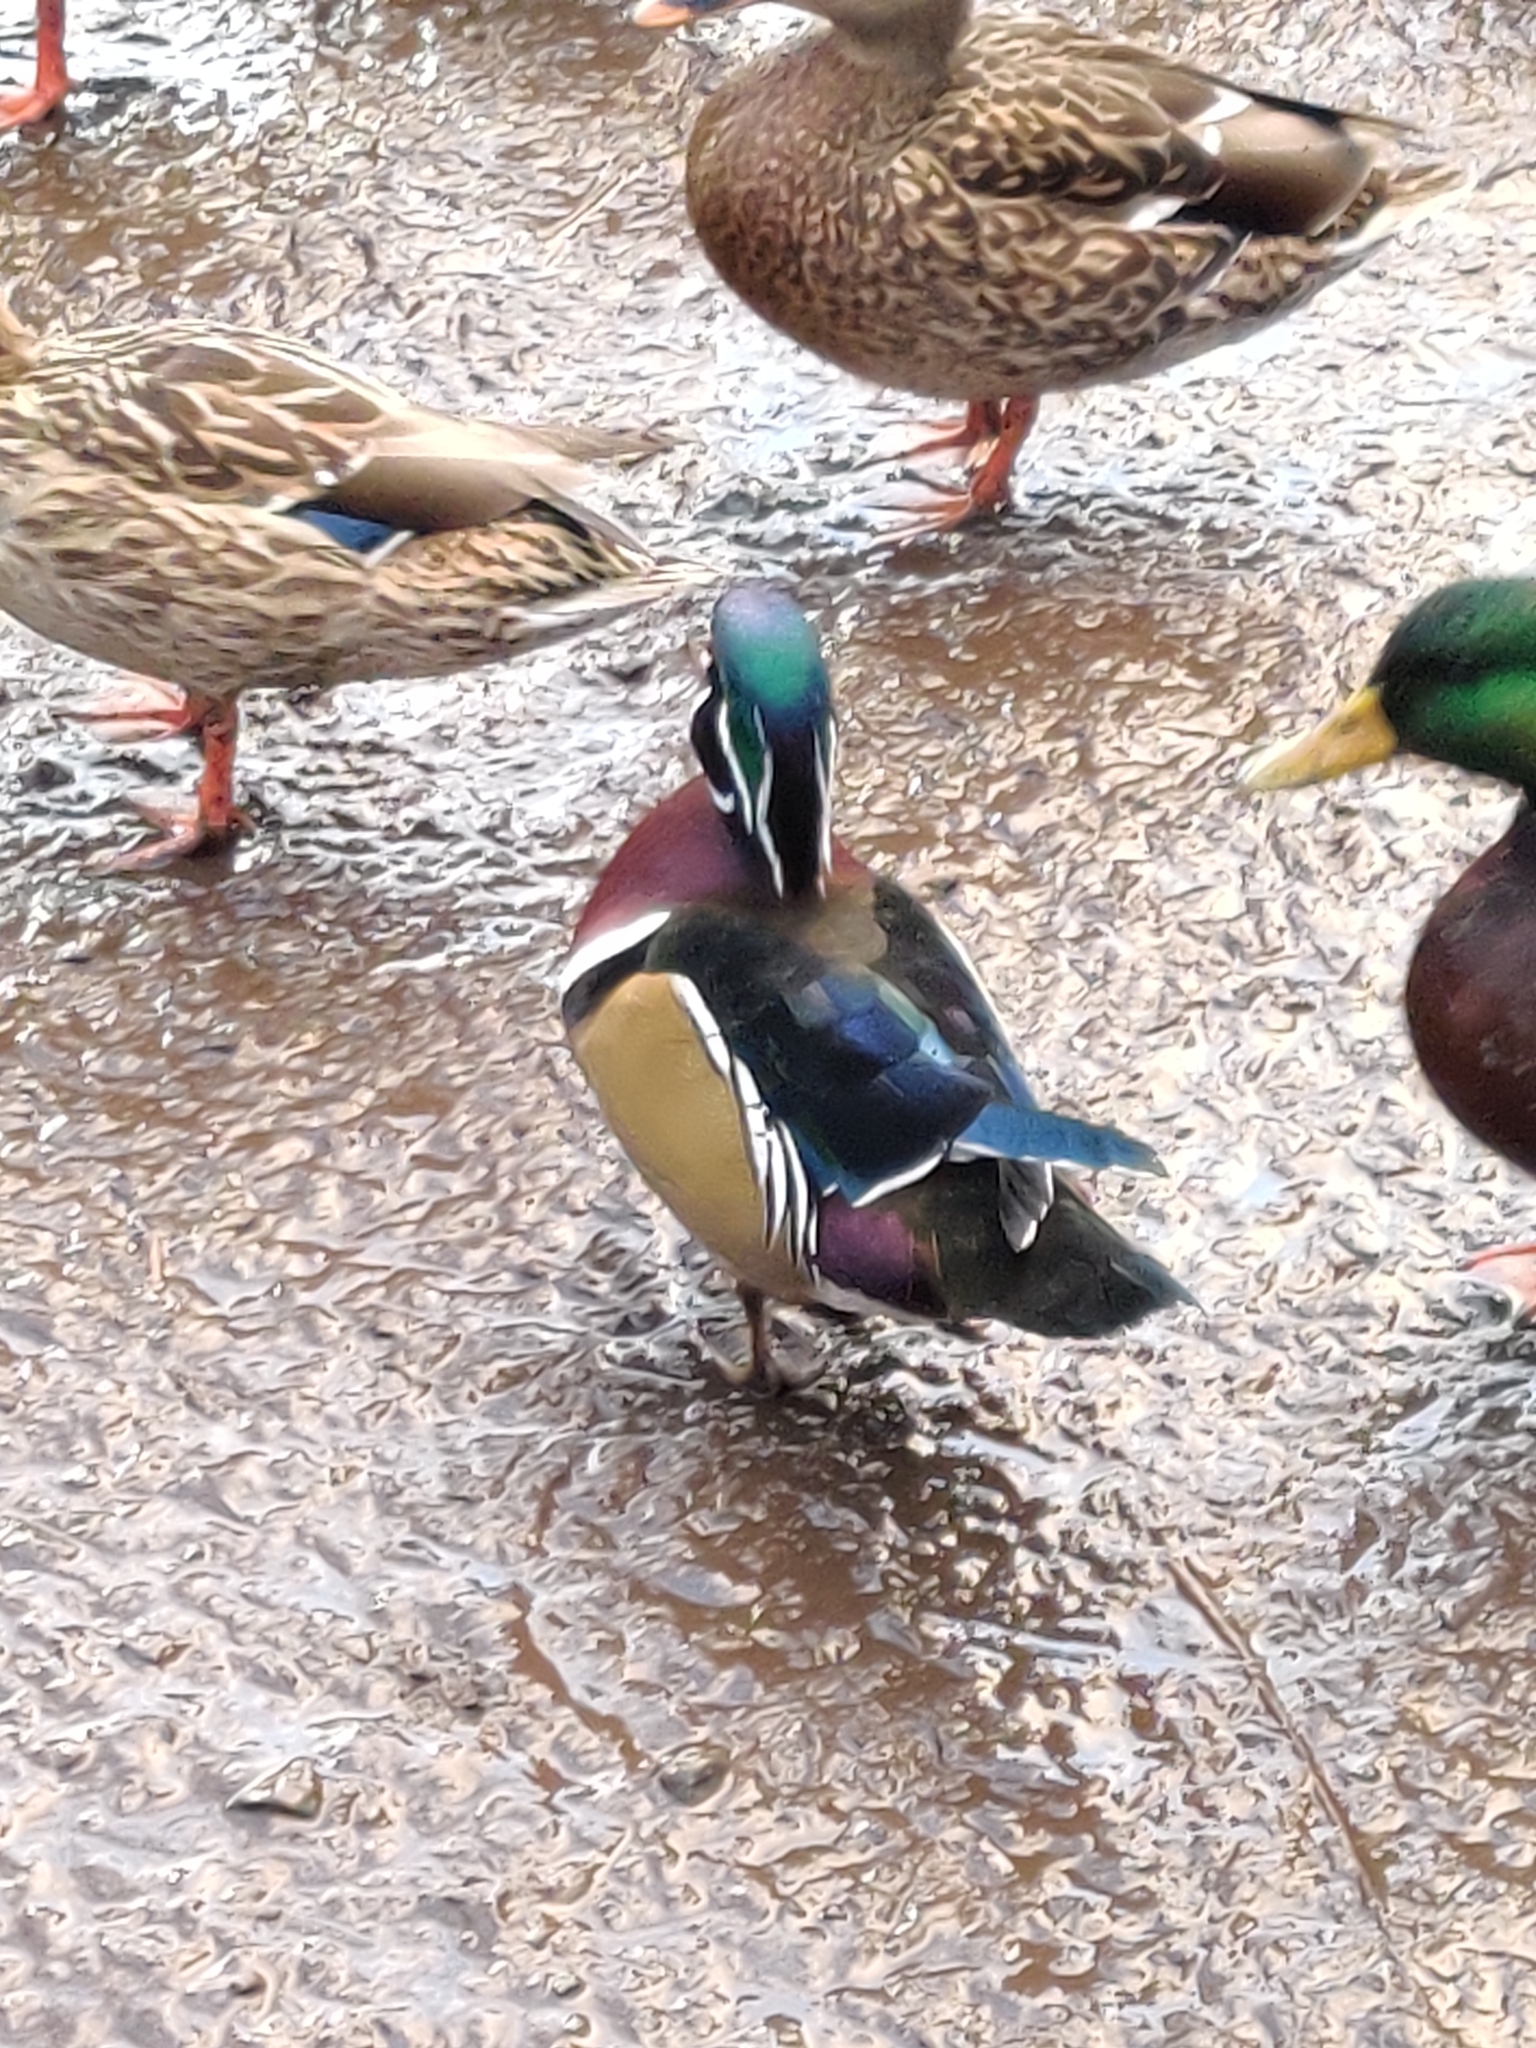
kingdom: Animalia
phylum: Chordata
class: Aves
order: Anseriformes
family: Anatidae
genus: Aix
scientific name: Aix sponsa
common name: Wood duck
